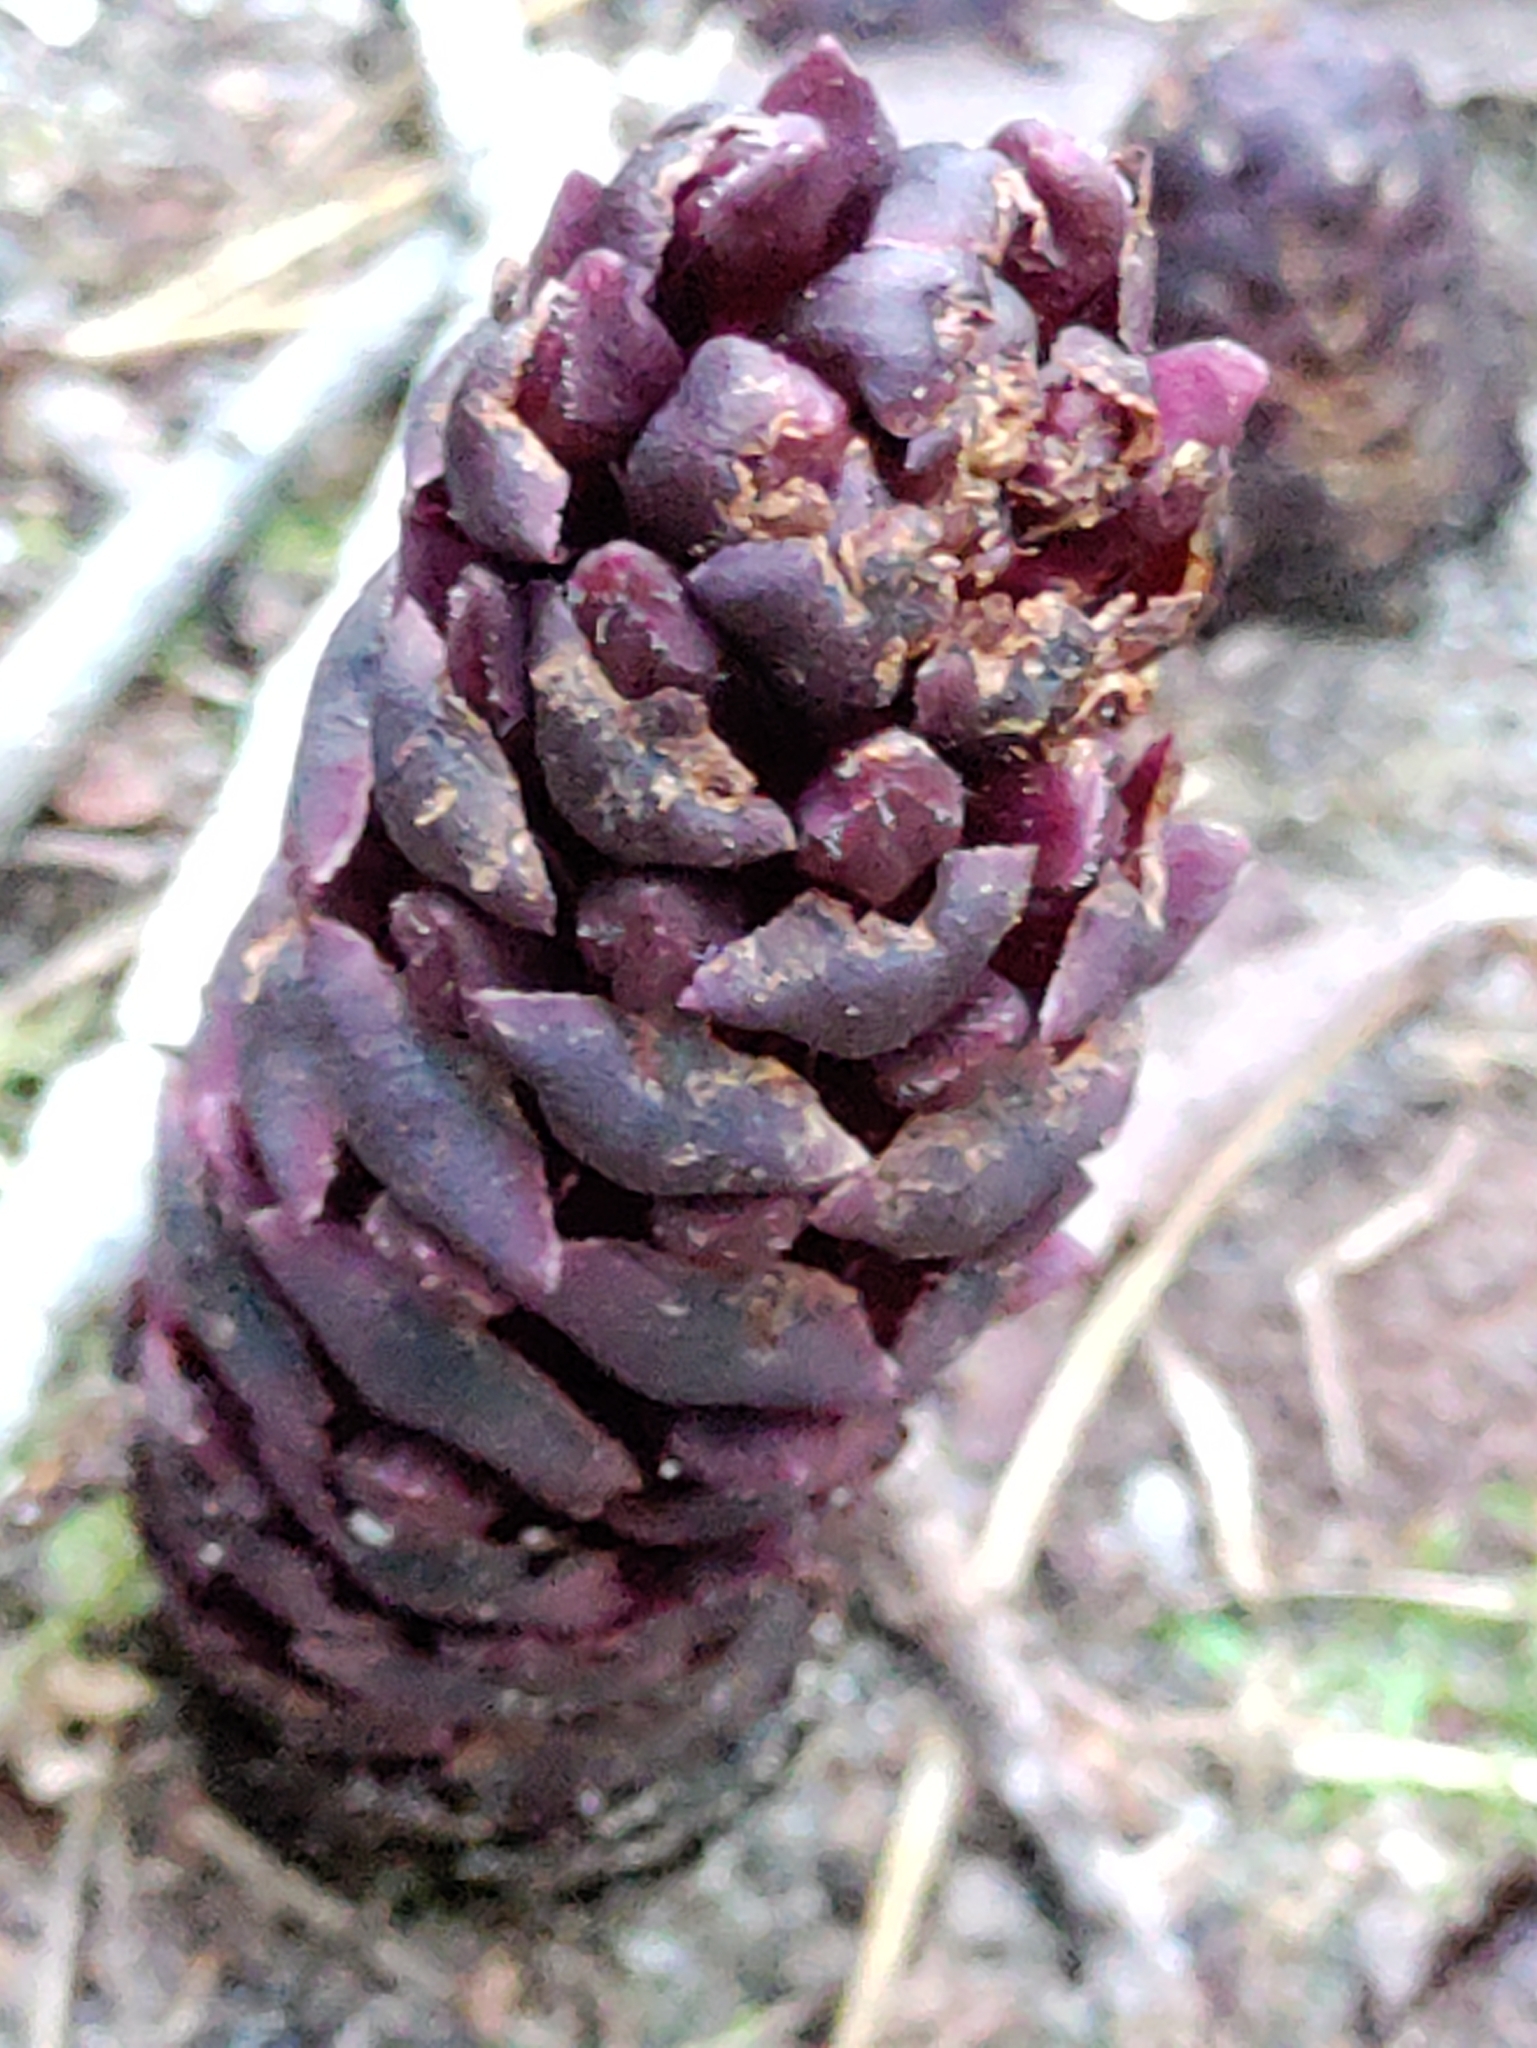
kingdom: Plantae
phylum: Tracheophyta
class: Magnoliopsida
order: Lamiales
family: Orobanchaceae
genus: Kopsiopsis
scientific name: Kopsiopsis hookeri
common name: Hooker's groundcone
